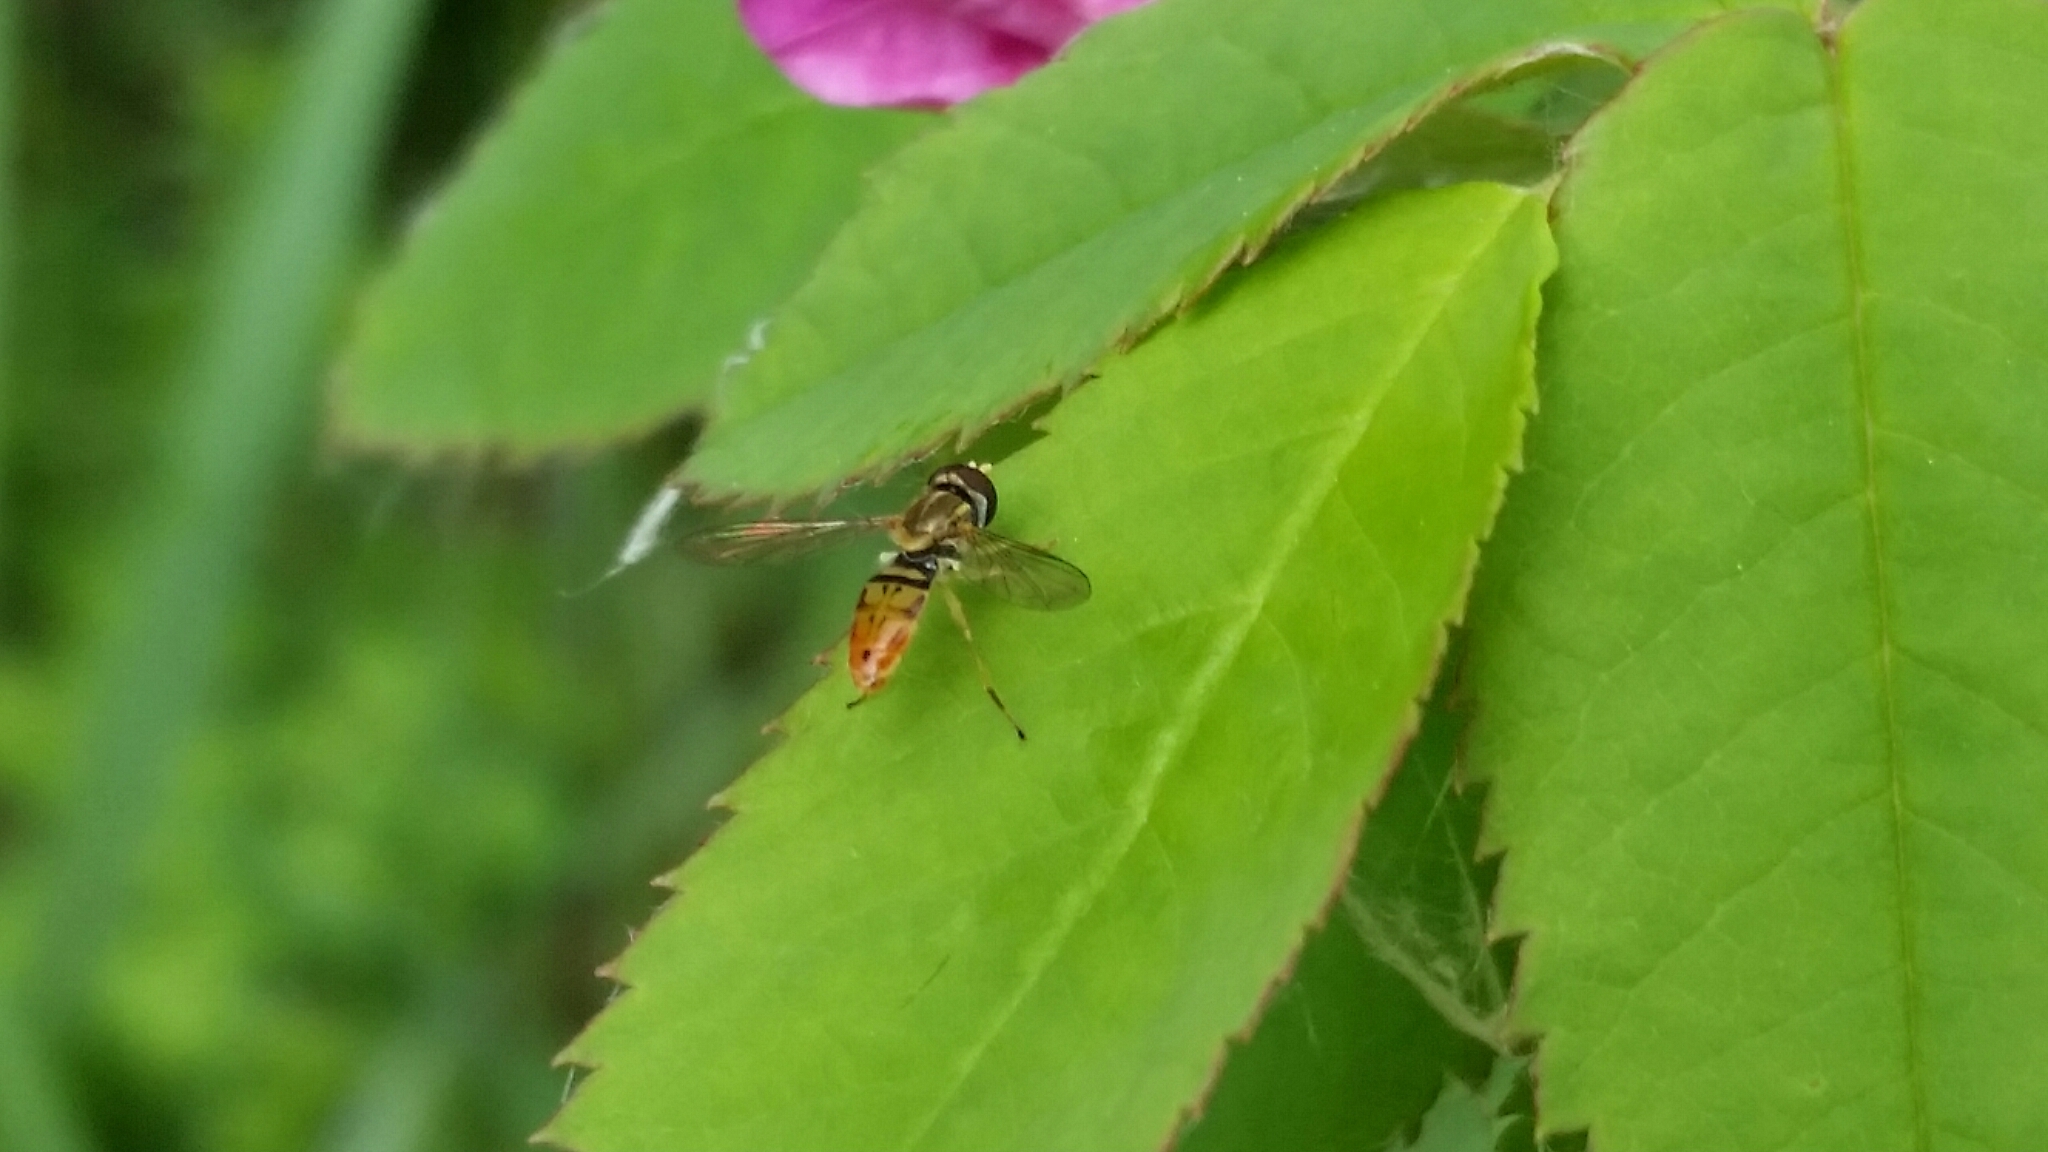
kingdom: Animalia
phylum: Arthropoda
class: Insecta
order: Diptera
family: Syrphidae
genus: Toxomerus
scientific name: Toxomerus marginatus
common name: Syrphid fly
